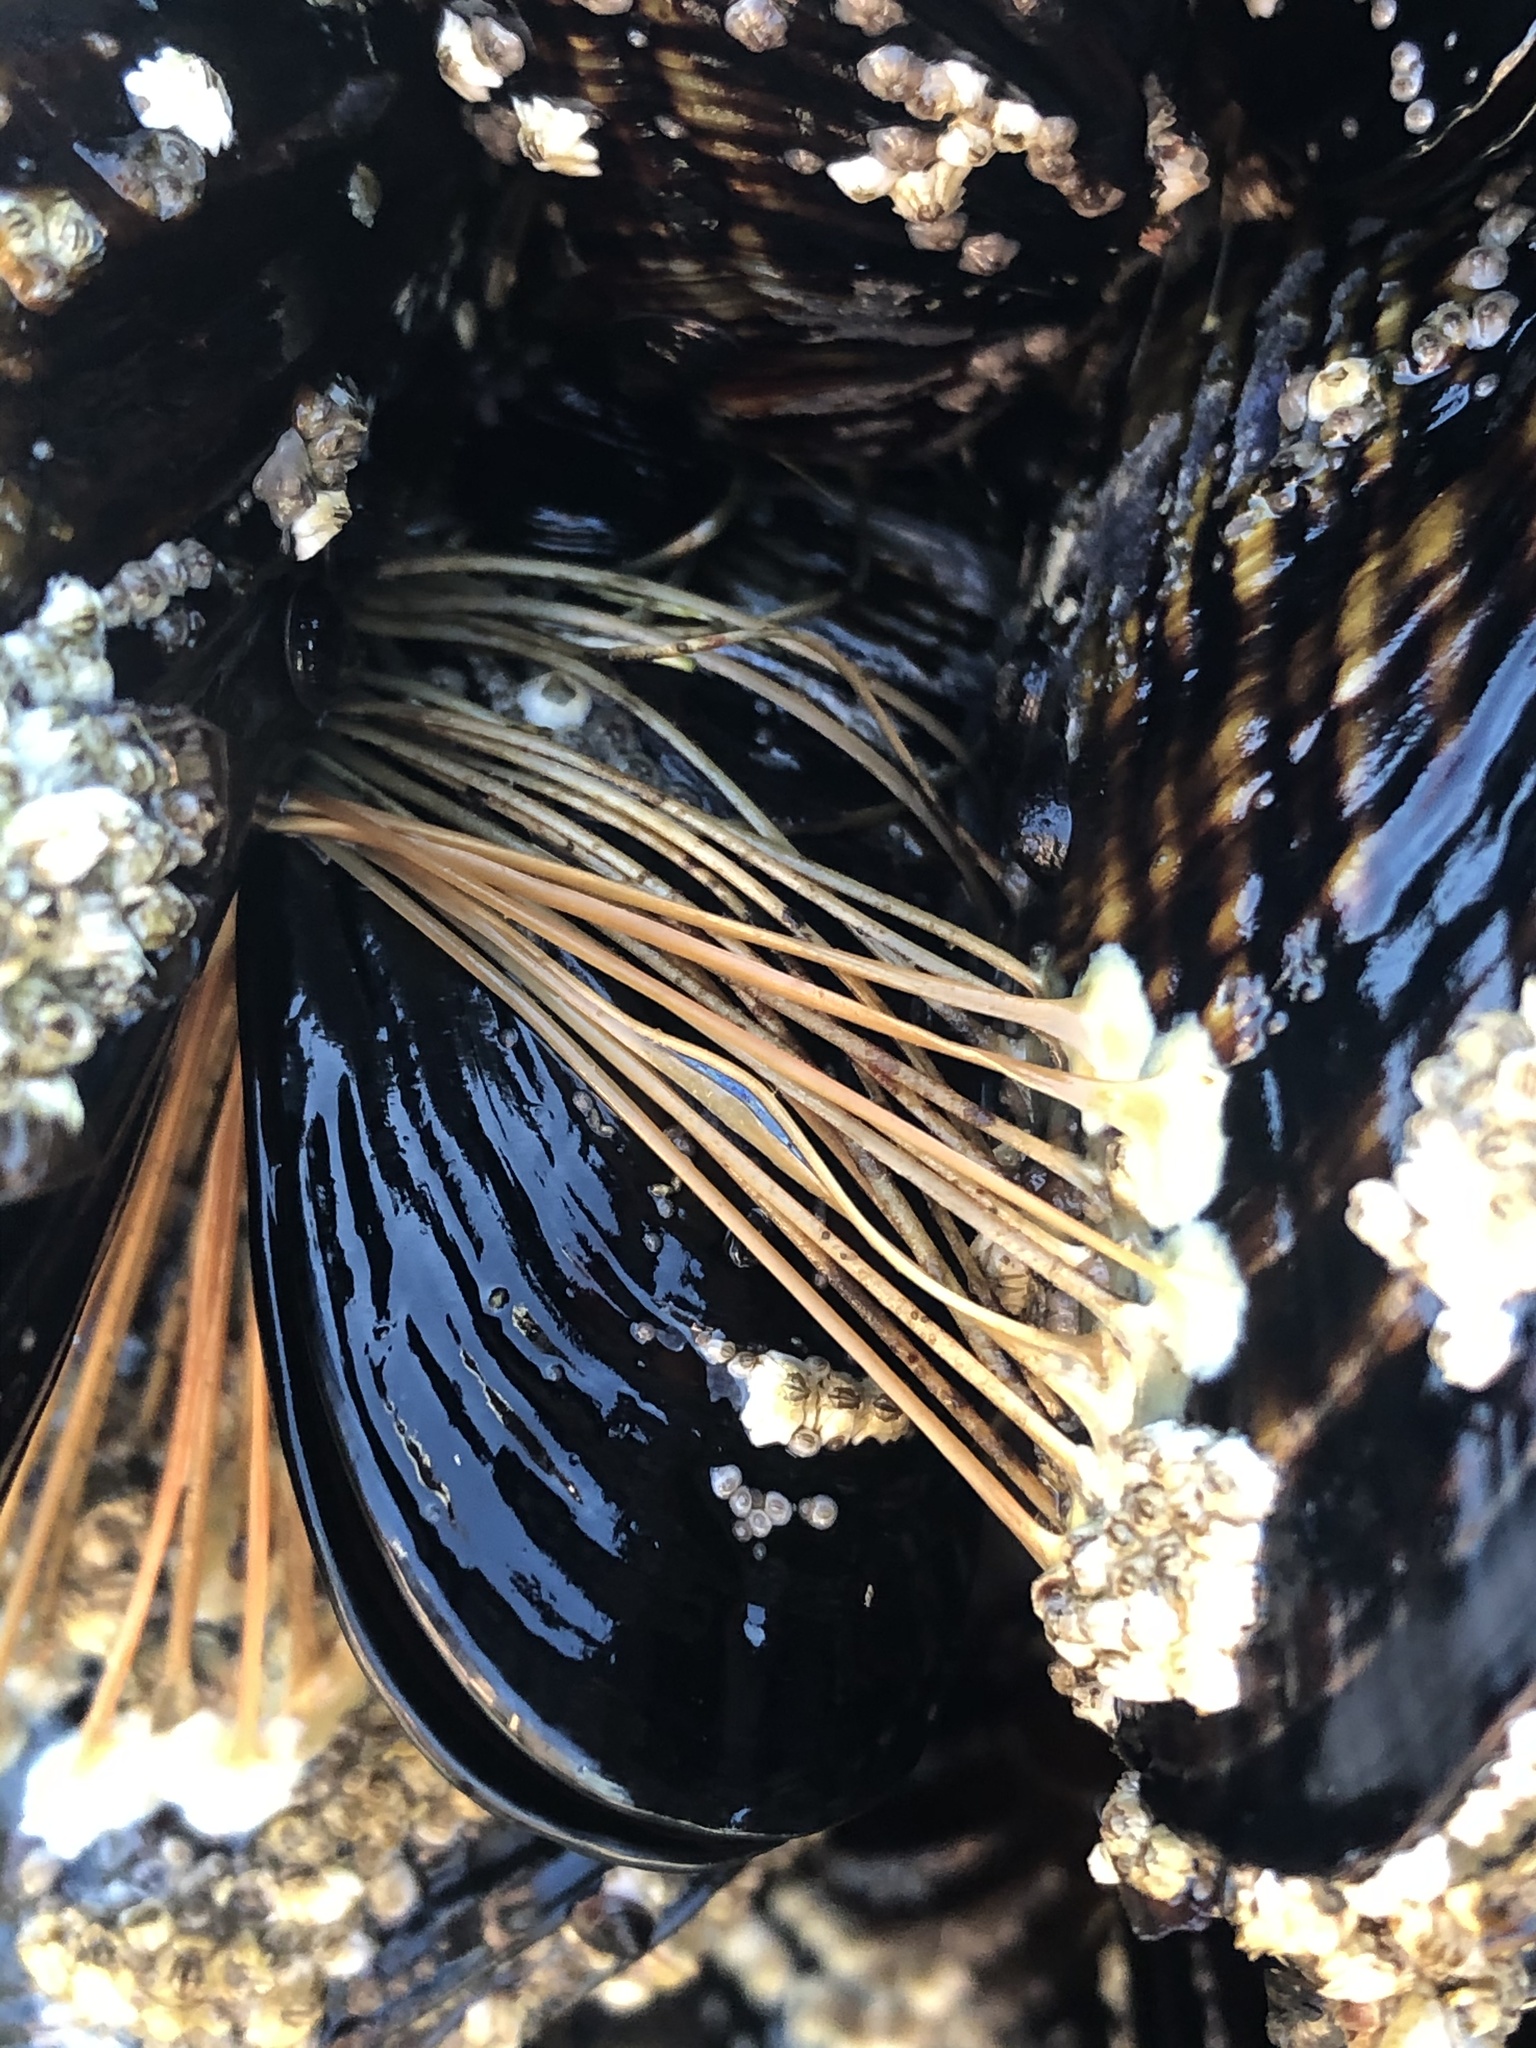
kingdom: Animalia
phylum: Mollusca
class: Bivalvia
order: Mytilida
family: Mytilidae
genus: Mytilus
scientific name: Mytilus californianus
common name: California mussel
